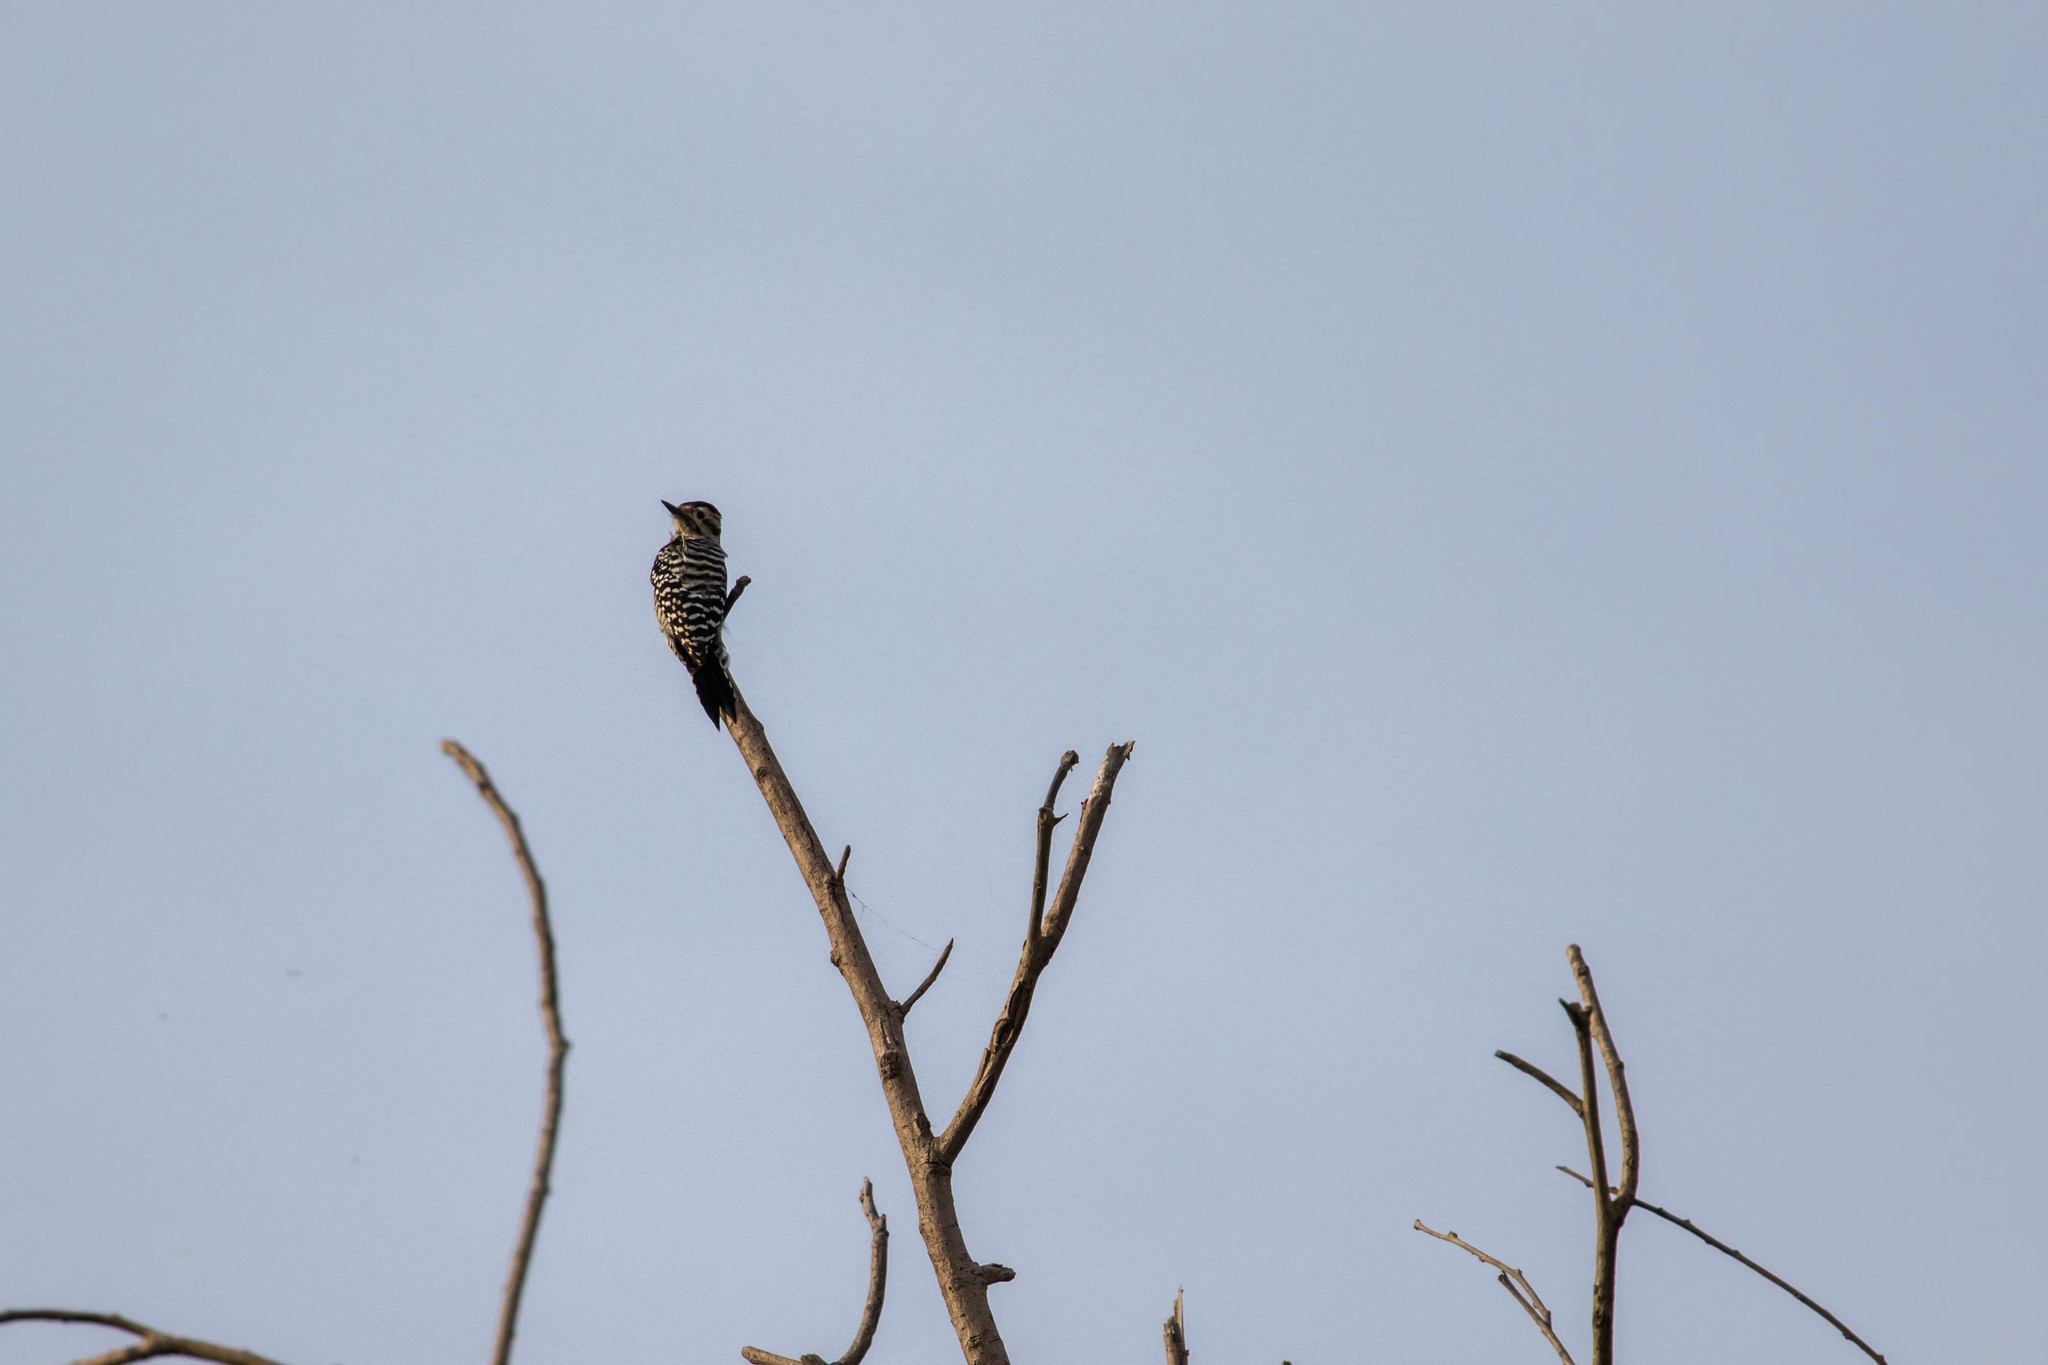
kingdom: Animalia
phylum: Chordata
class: Aves
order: Piciformes
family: Picidae
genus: Dryobates
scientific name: Dryobates scalaris
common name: Ladder-backed woodpecker
